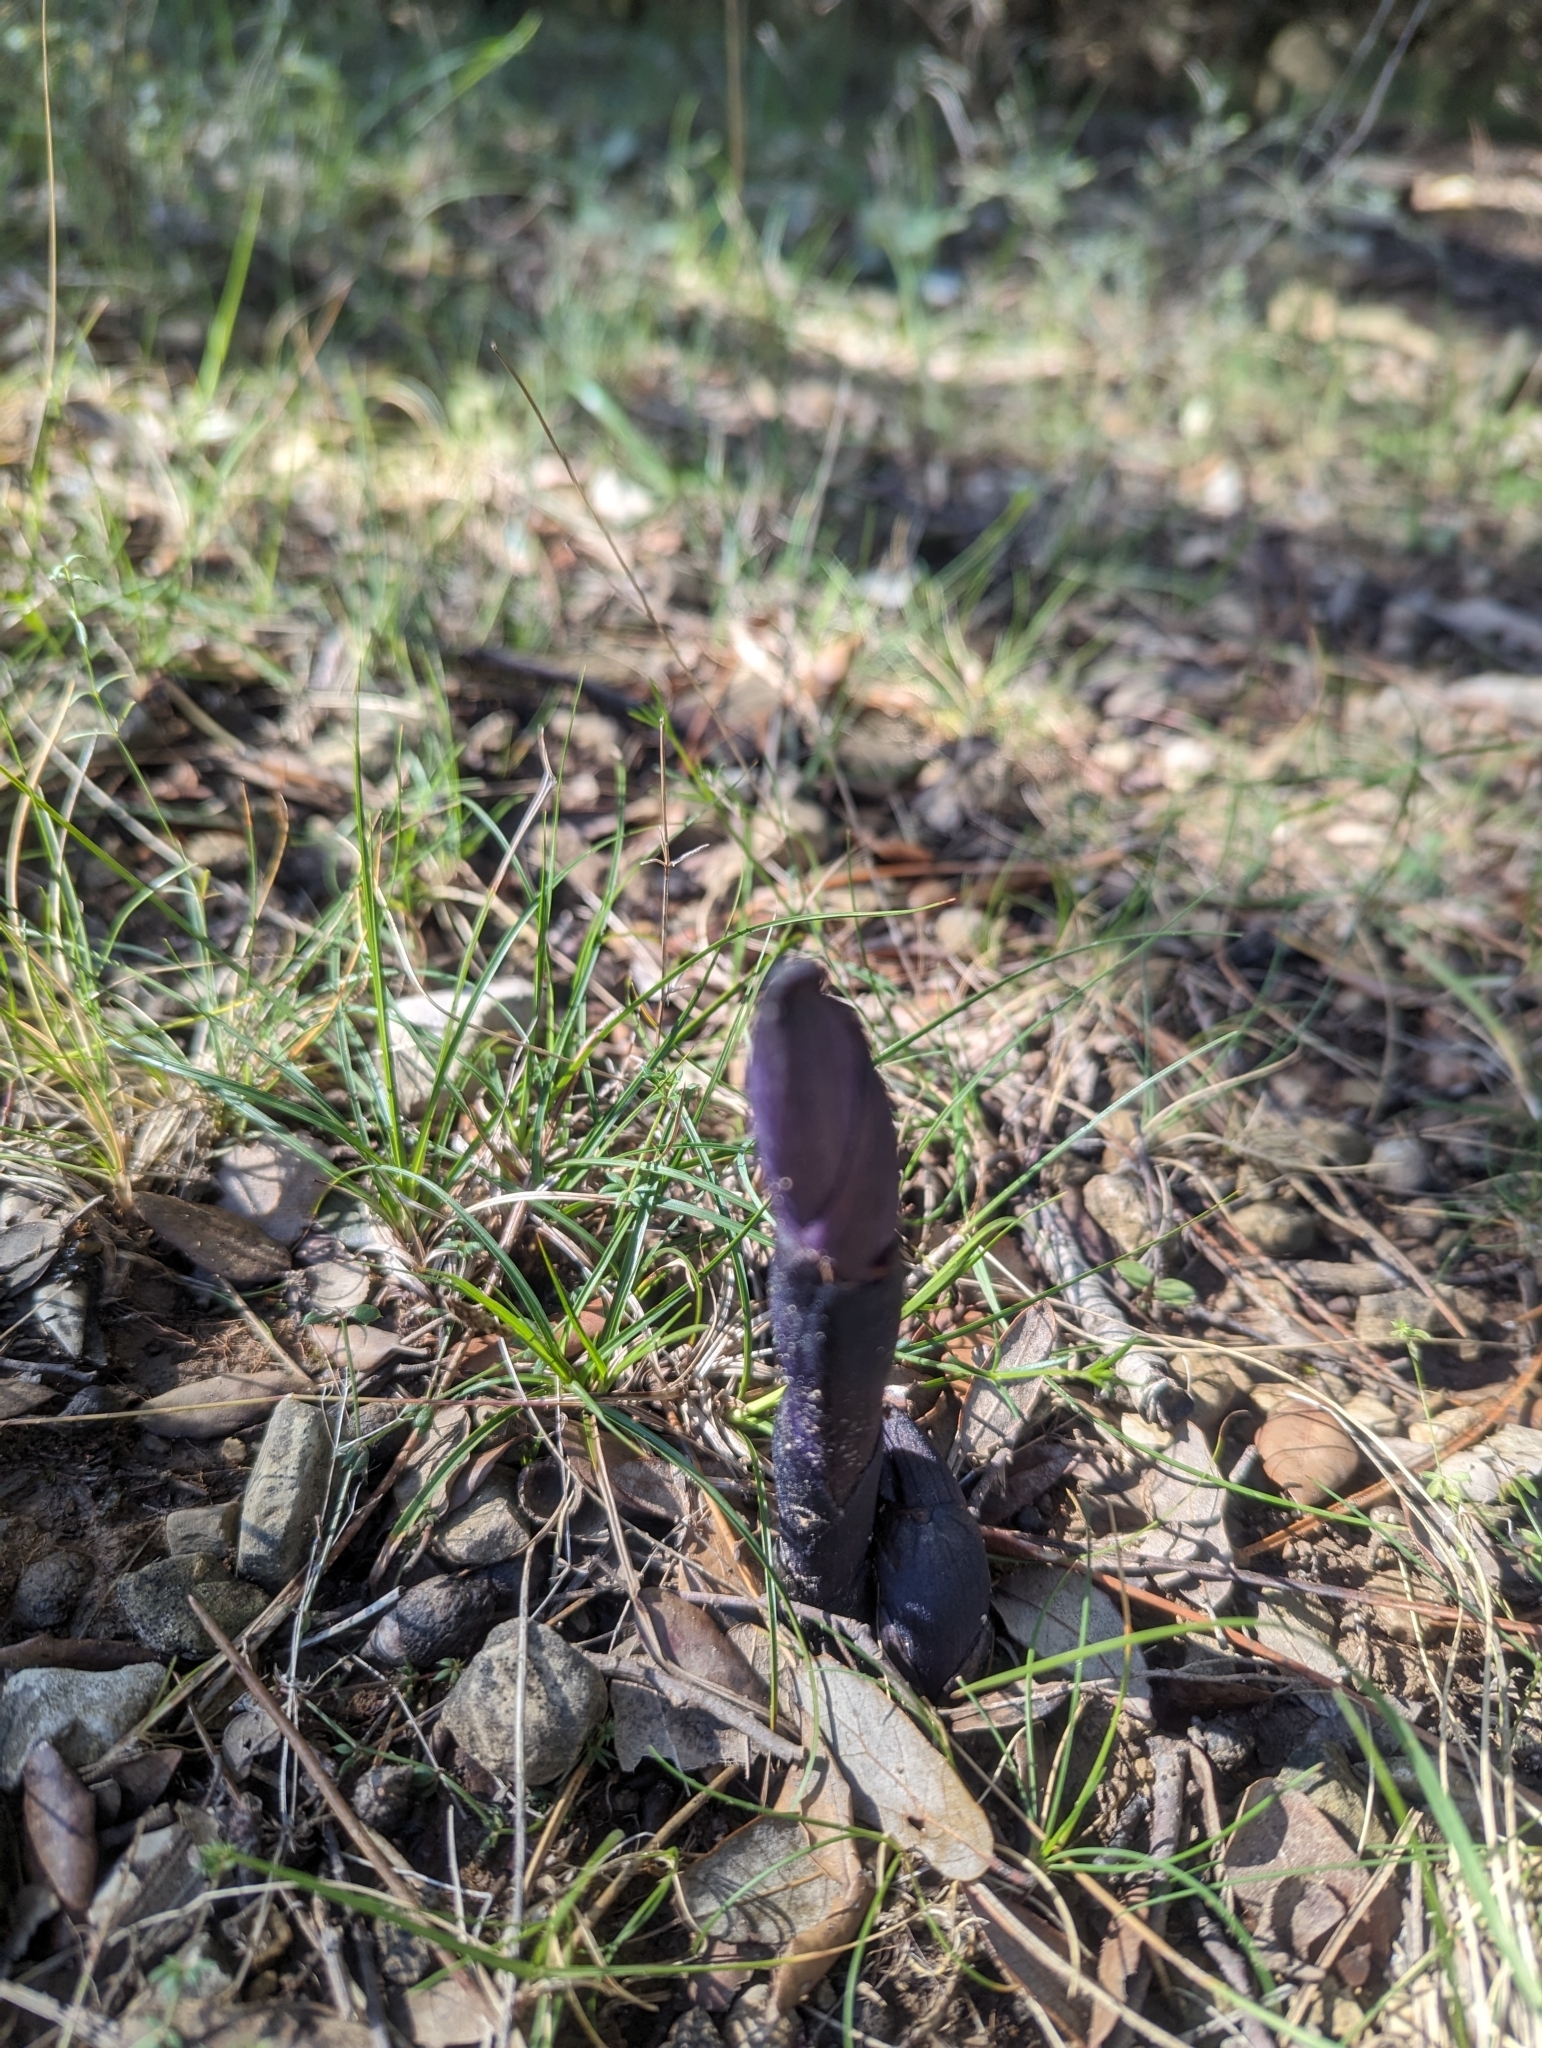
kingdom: Plantae
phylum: Tracheophyta
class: Liliopsida
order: Asparagales
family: Orchidaceae
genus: Limodorum
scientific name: Limodorum abortivum
